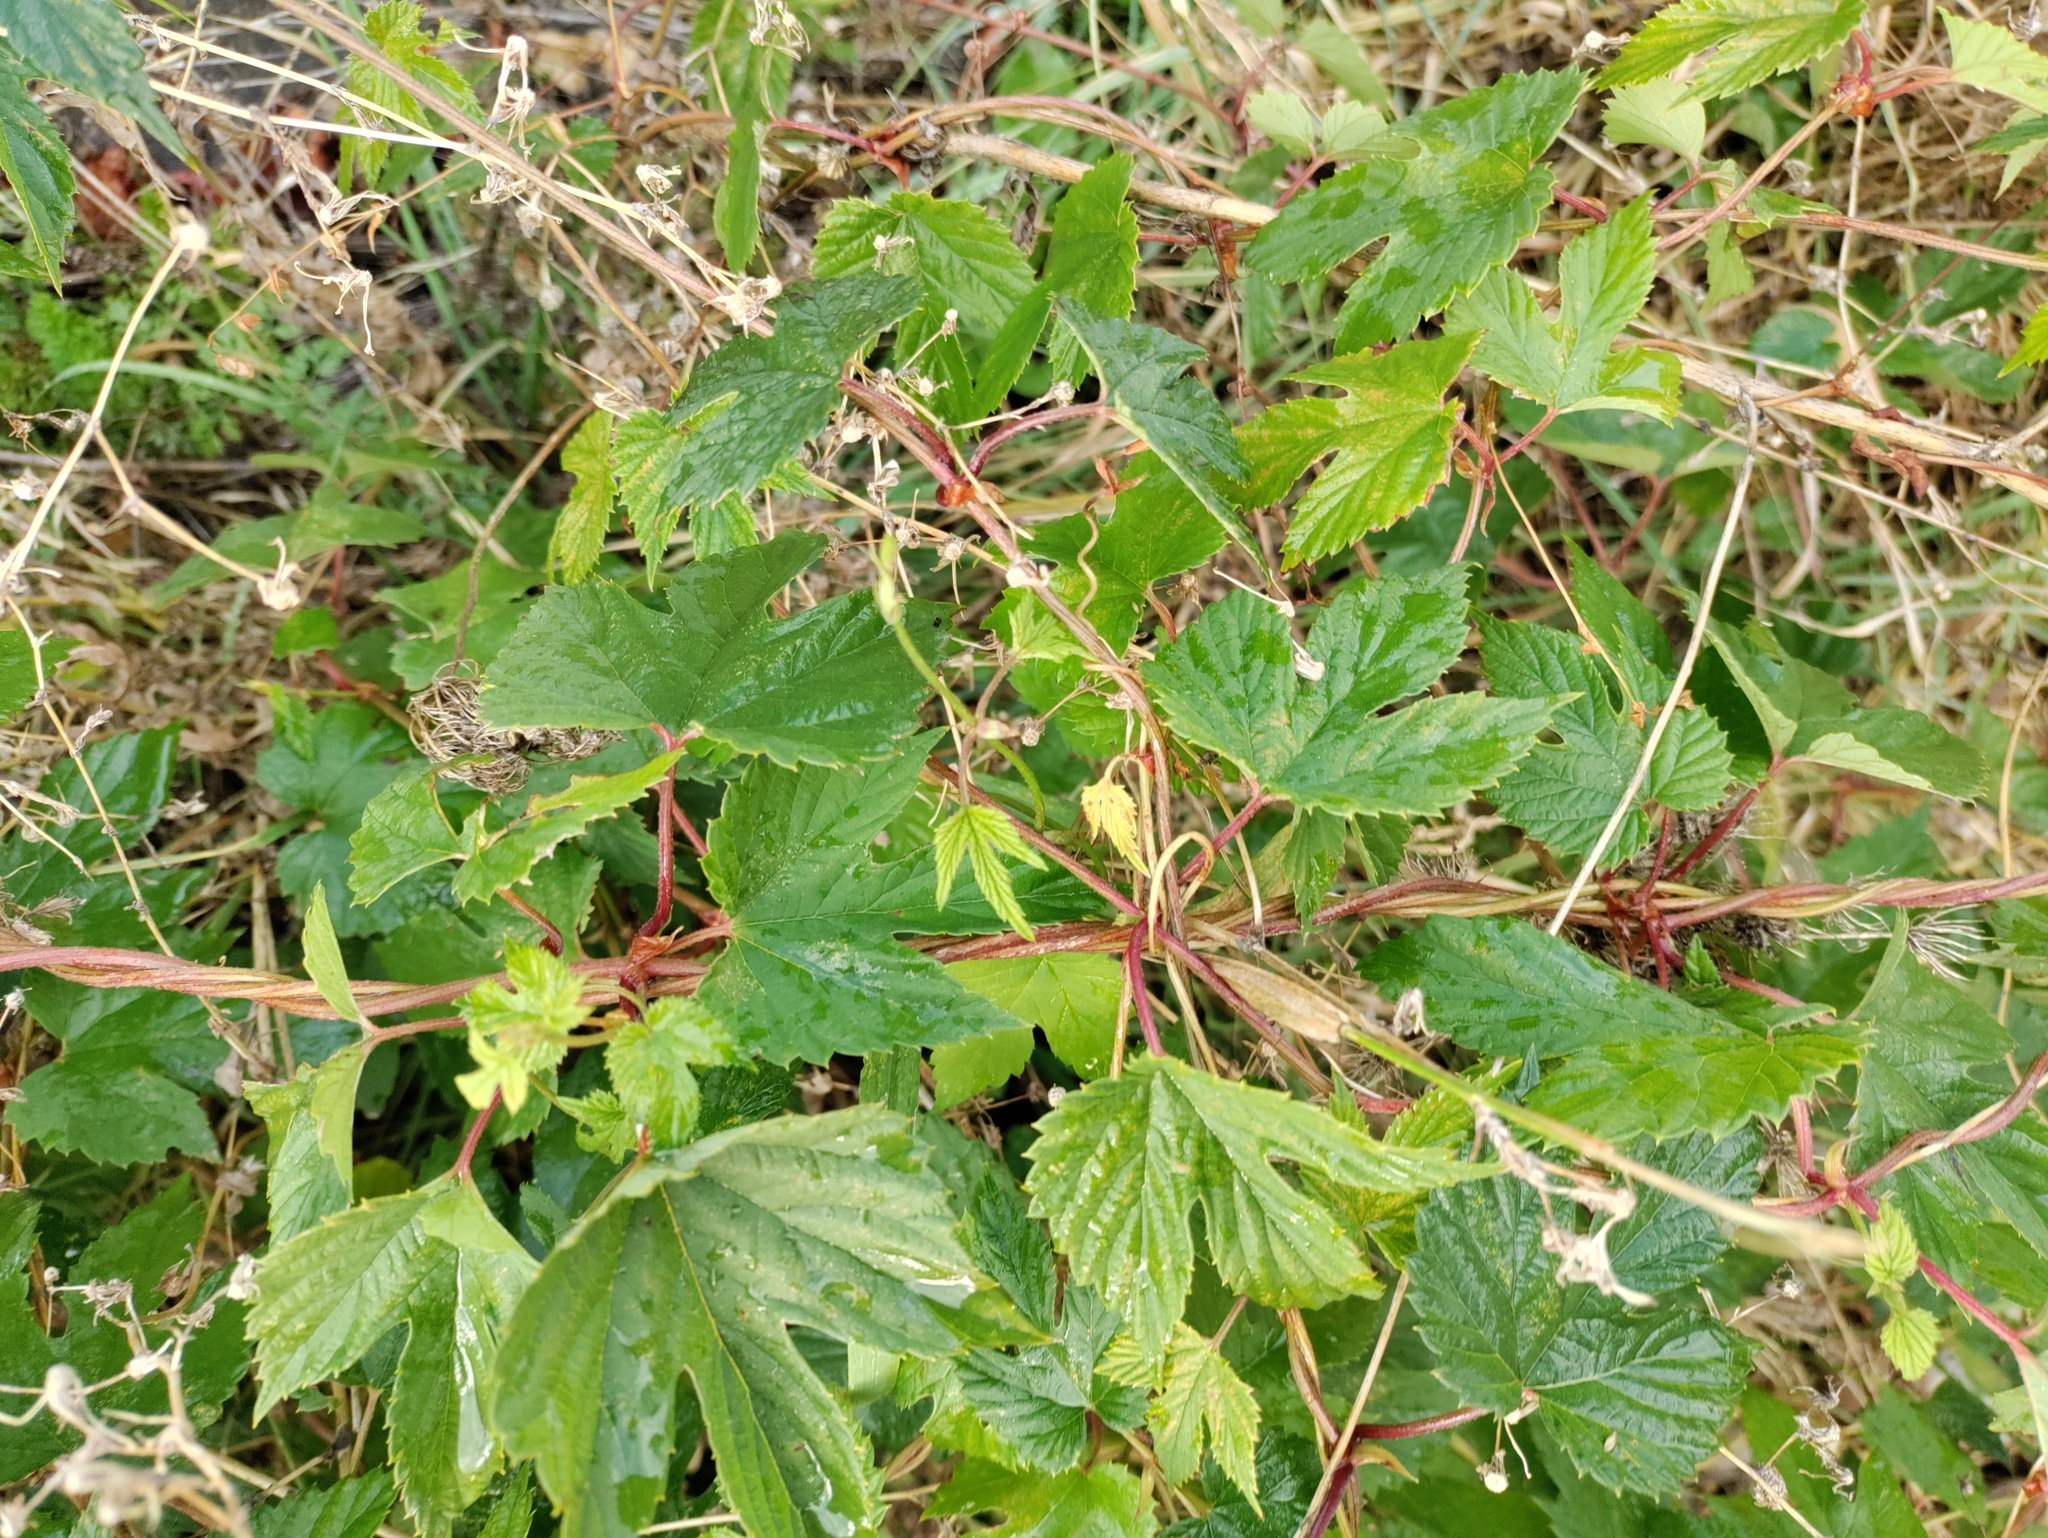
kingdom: Plantae
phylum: Tracheophyta
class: Magnoliopsida
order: Rosales
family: Cannabaceae
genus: Humulus
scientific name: Humulus lupulus
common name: Hop
